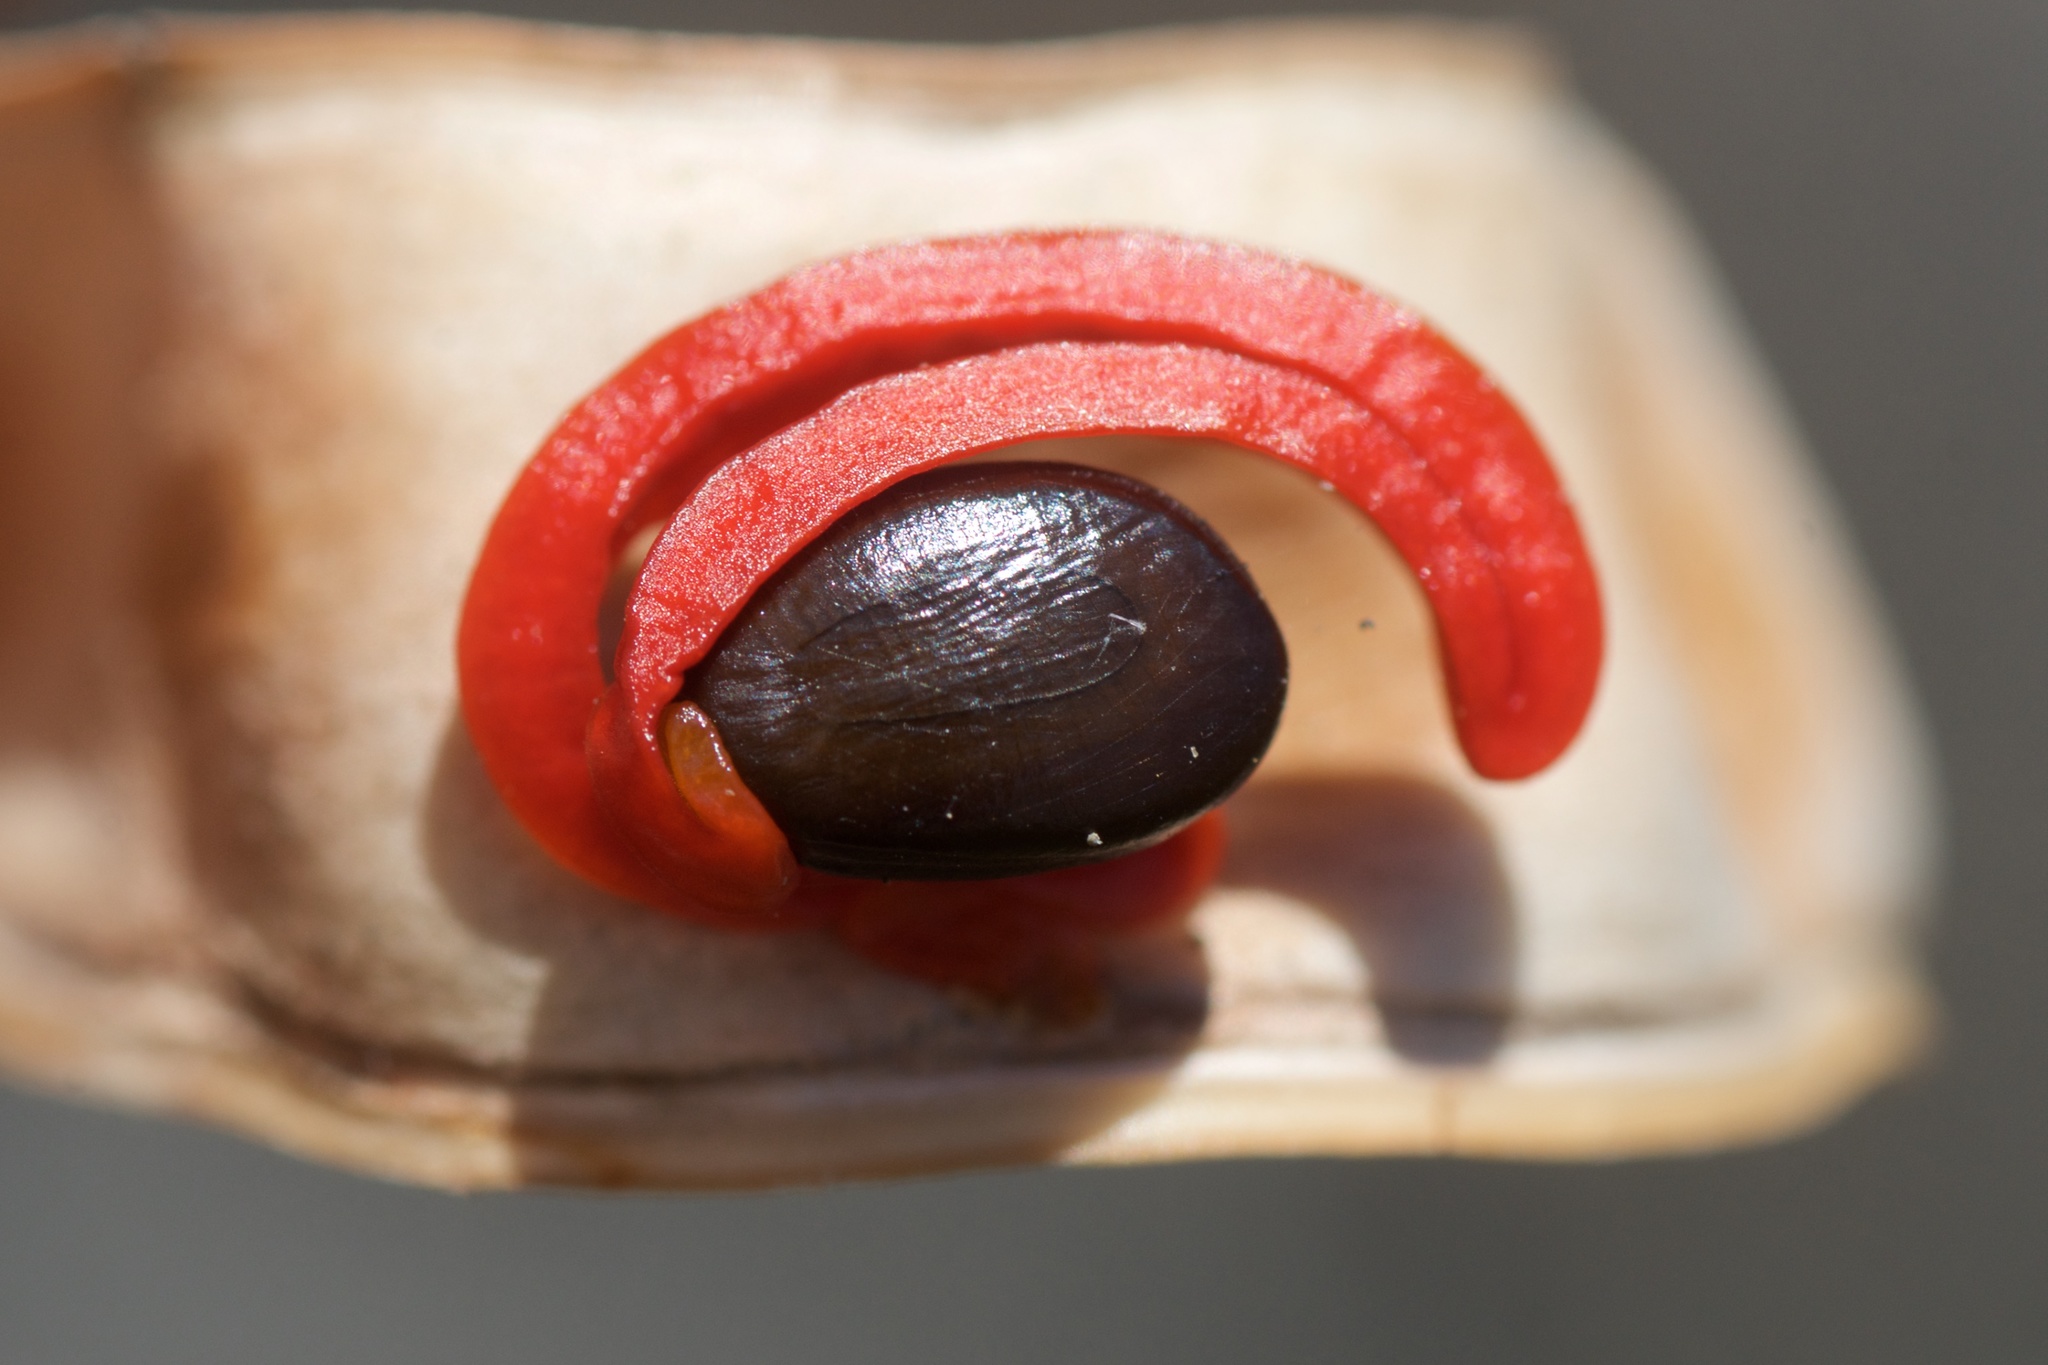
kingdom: Plantae
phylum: Tracheophyta
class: Magnoliopsida
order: Fabales
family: Fabaceae
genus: Acacia
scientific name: Acacia cyclops
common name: Coastal wattle
